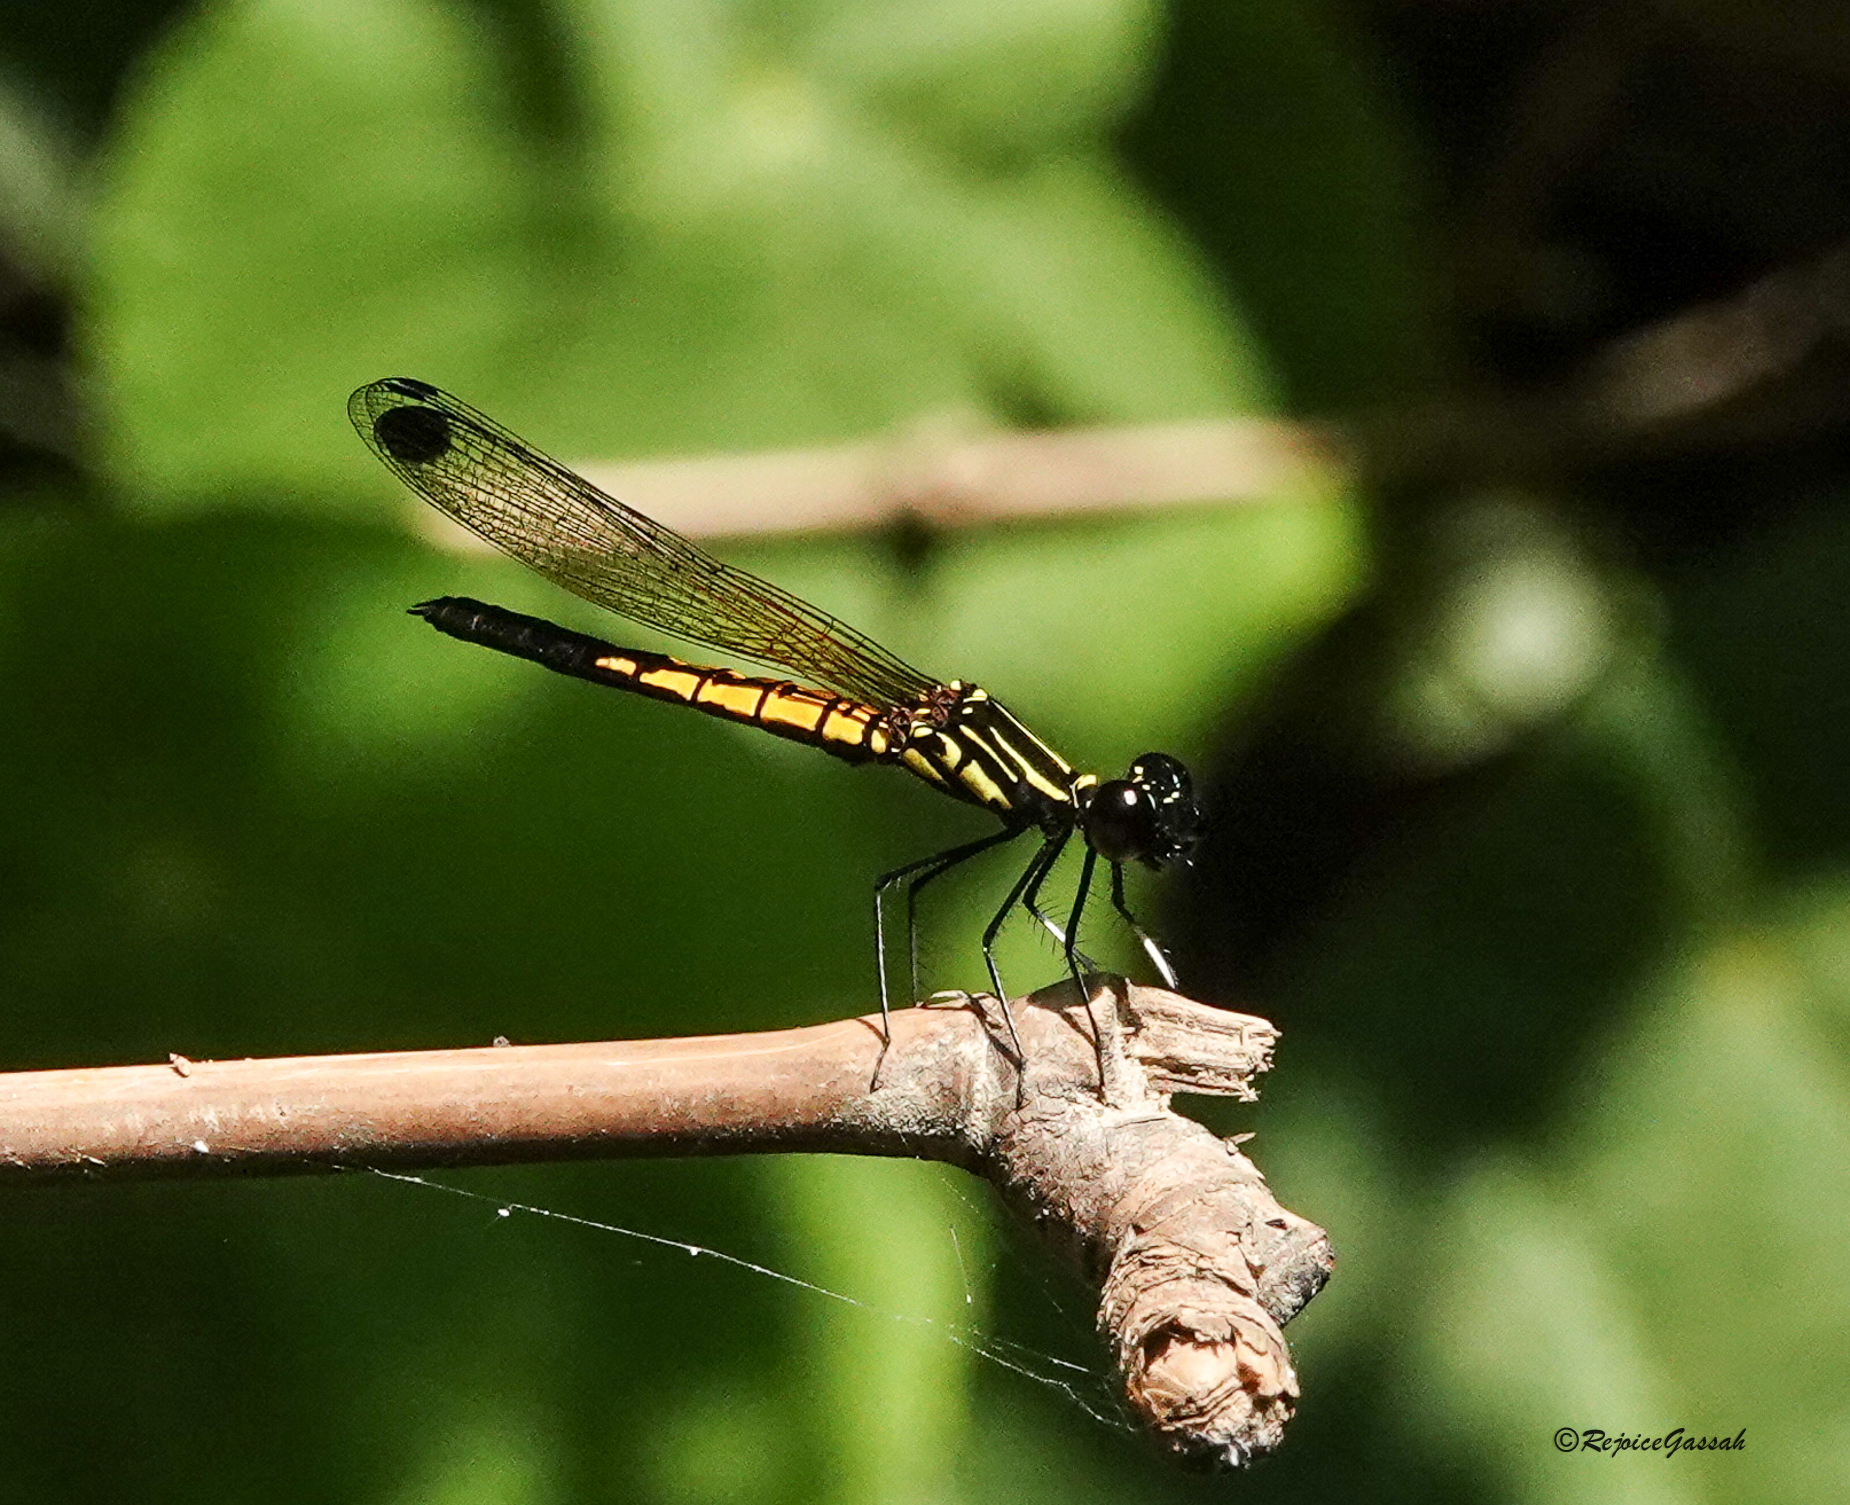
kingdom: Animalia
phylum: Arthropoda
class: Insecta
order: Odonata
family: Chlorocyphidae
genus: Libellago
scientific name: Libellago lineata
